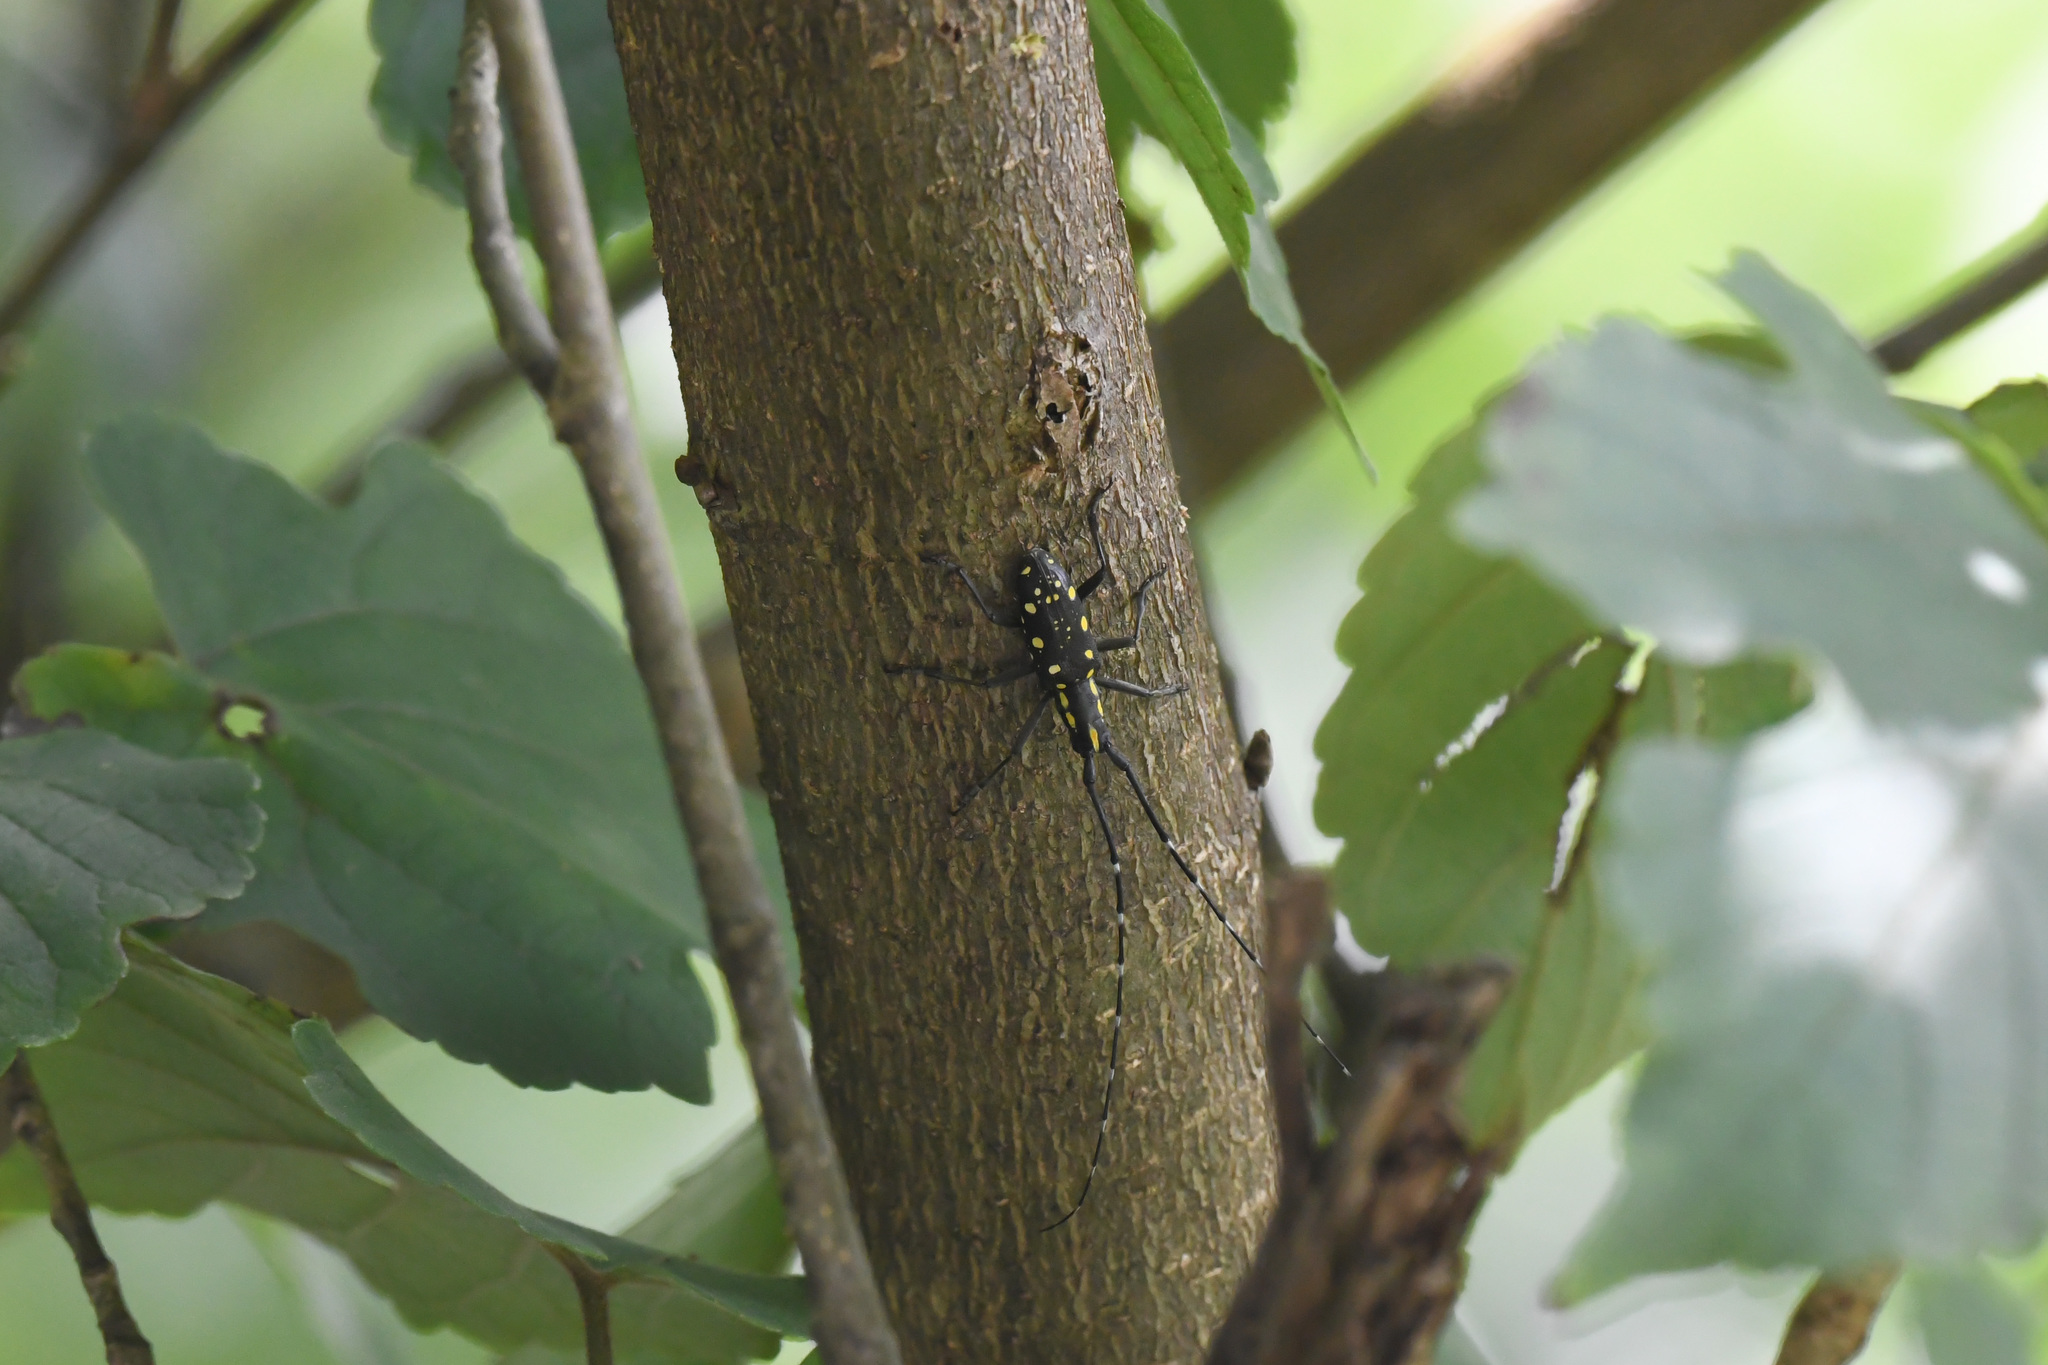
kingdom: Animalia
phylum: Arthropoda
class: Insecta
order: Coleoptera
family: Cerambycidae
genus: Psacothea
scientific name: Psacothea hilaris
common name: Yellow-spotted longicorn beetle
